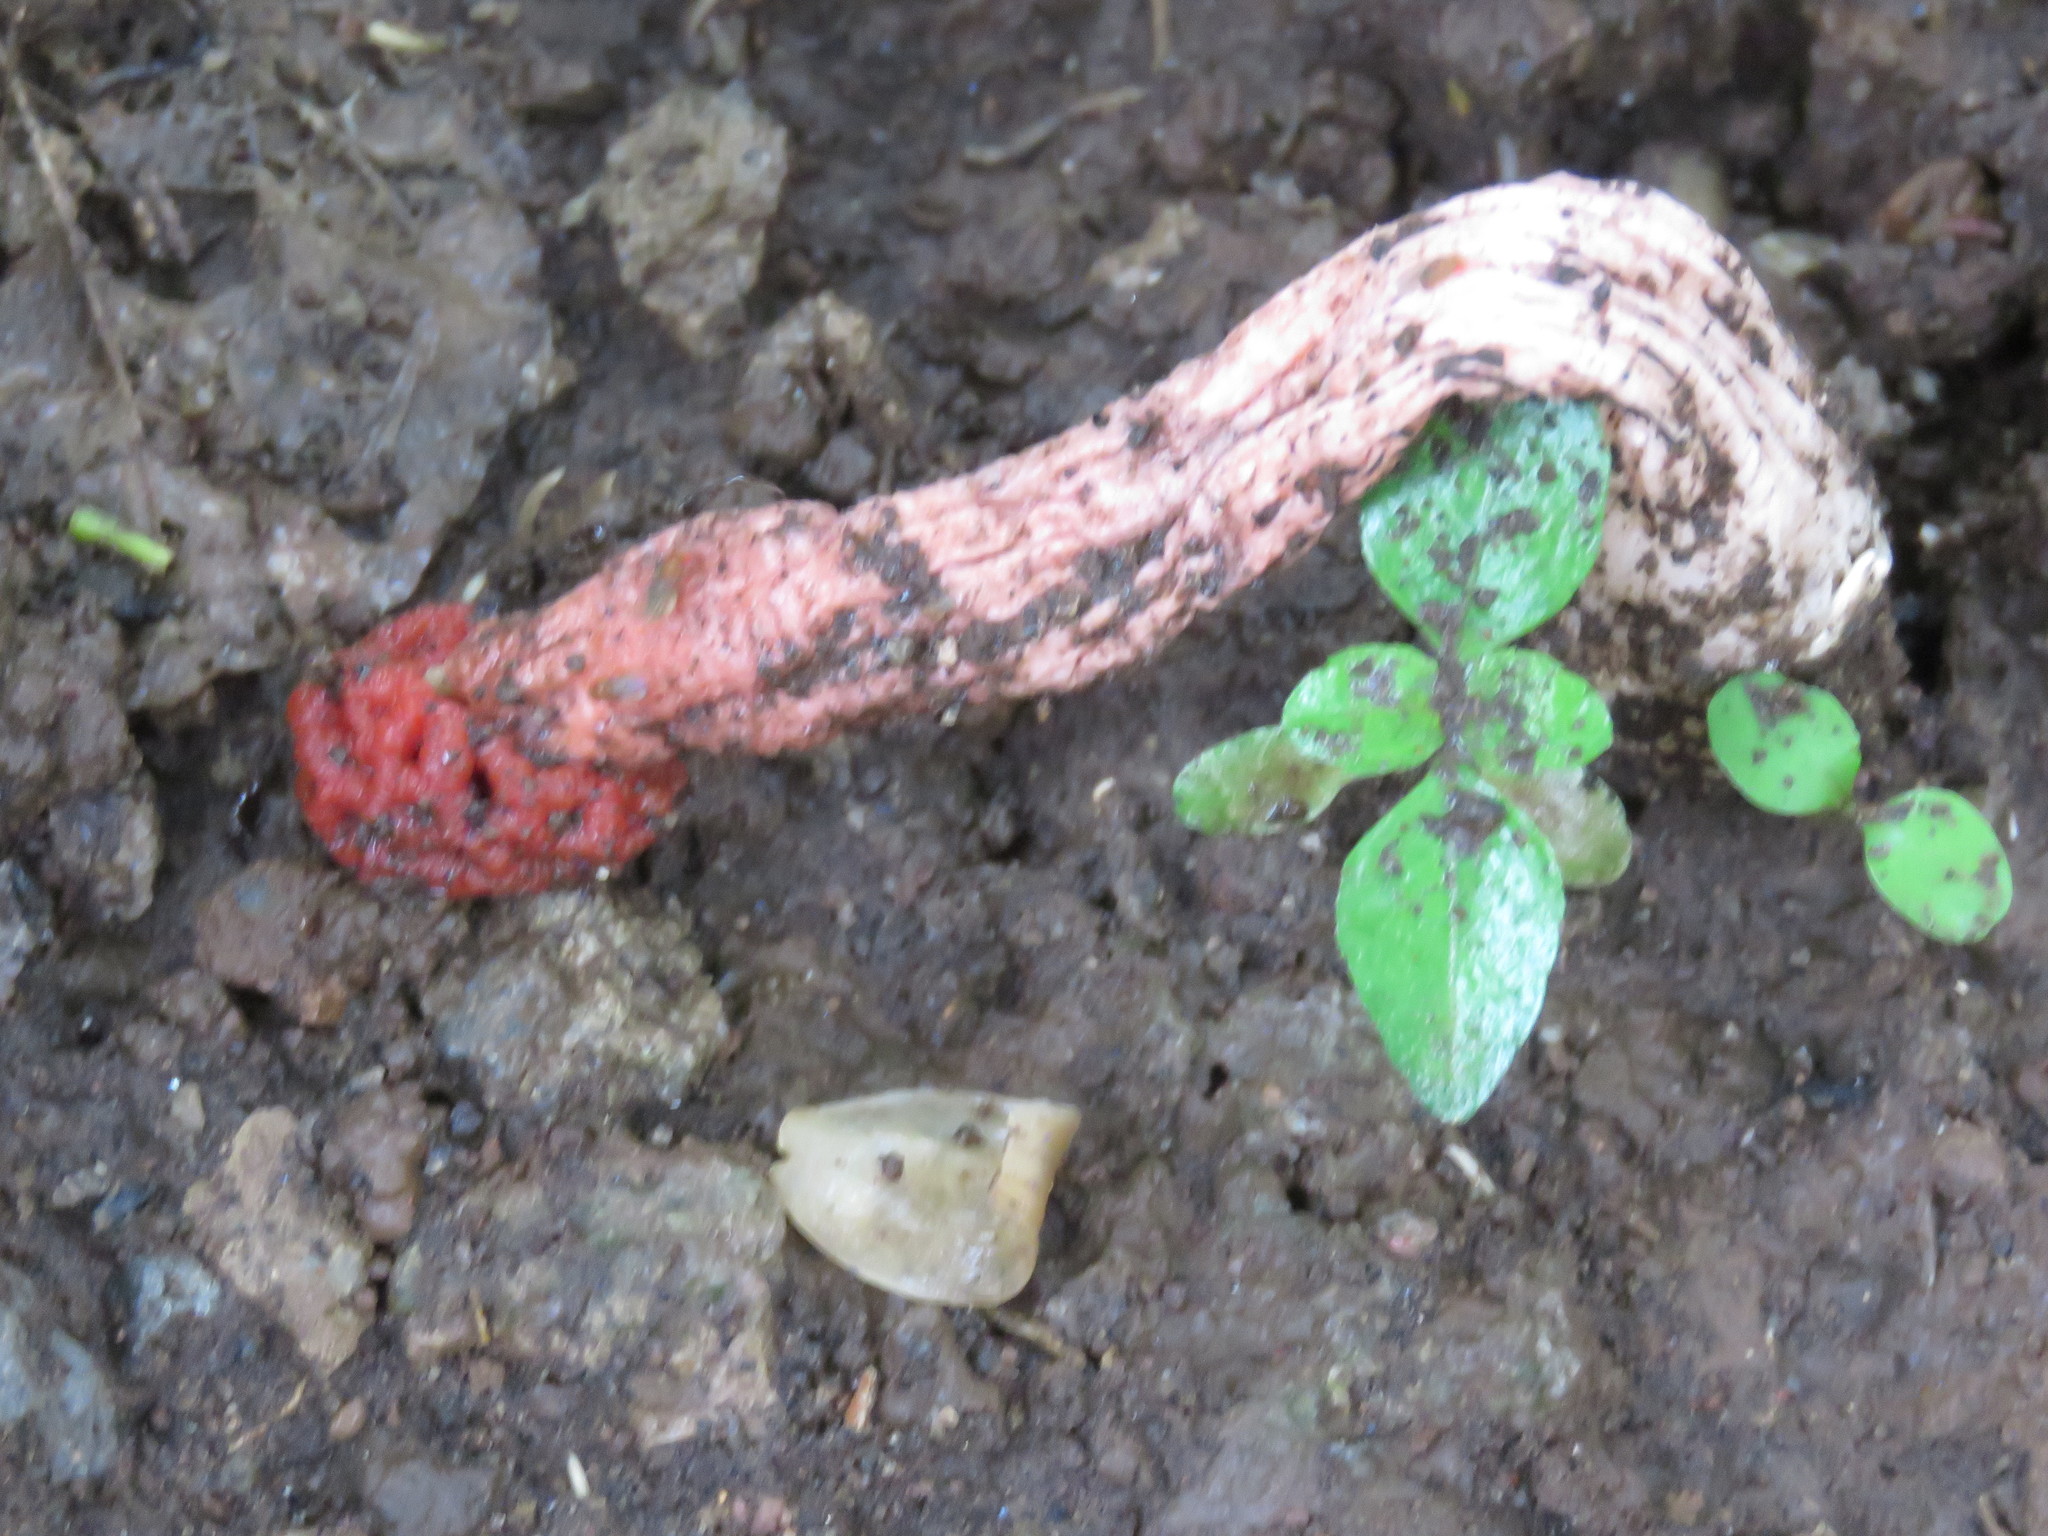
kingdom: Fungi
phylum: Basidiomycota
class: Agaricomycetes
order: Phallales
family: Phallaceae
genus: Lysurus
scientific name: Lysurus periphragmoides
